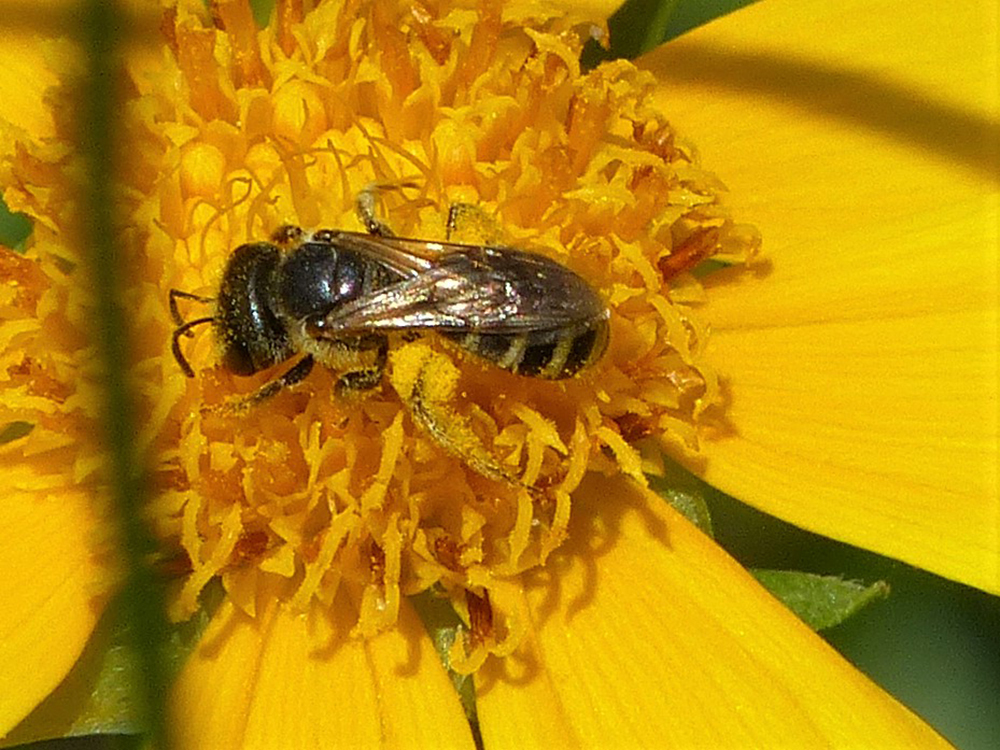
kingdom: Animalia
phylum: Arthropoda
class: Insecta
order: Hymenoptera
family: Halictidae
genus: Halictus
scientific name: Halictus ligatus
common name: Ligated furrow bee
